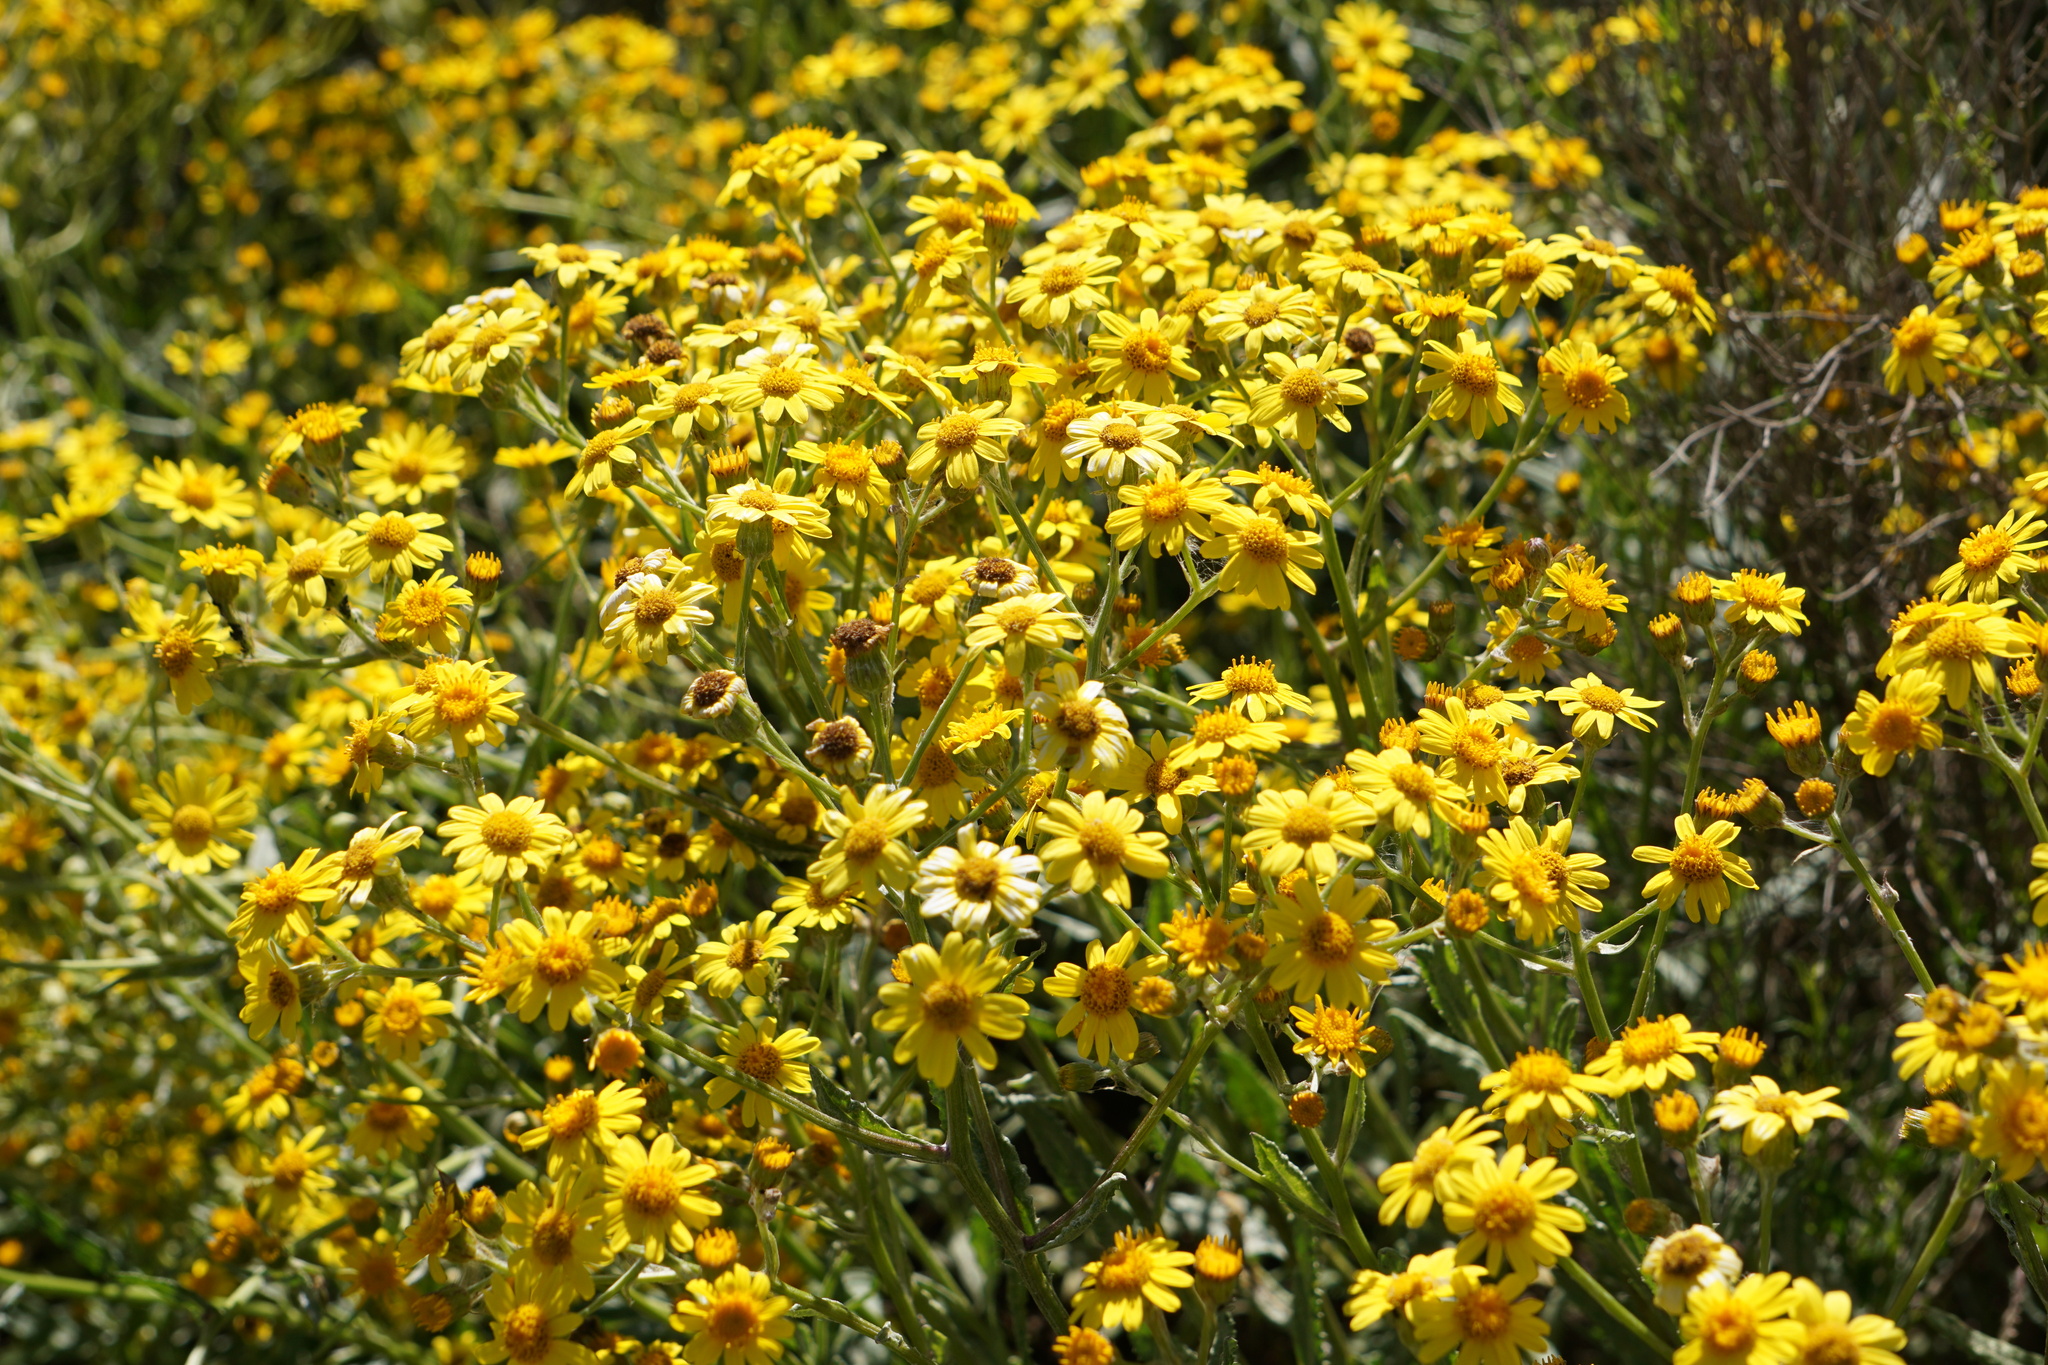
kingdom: Plantae
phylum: Tracheophyta
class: Magnoliopsida
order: Asterales
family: Asteraceae
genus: Senecio
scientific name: Senecio pterophorus
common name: Shoddy ragwort
